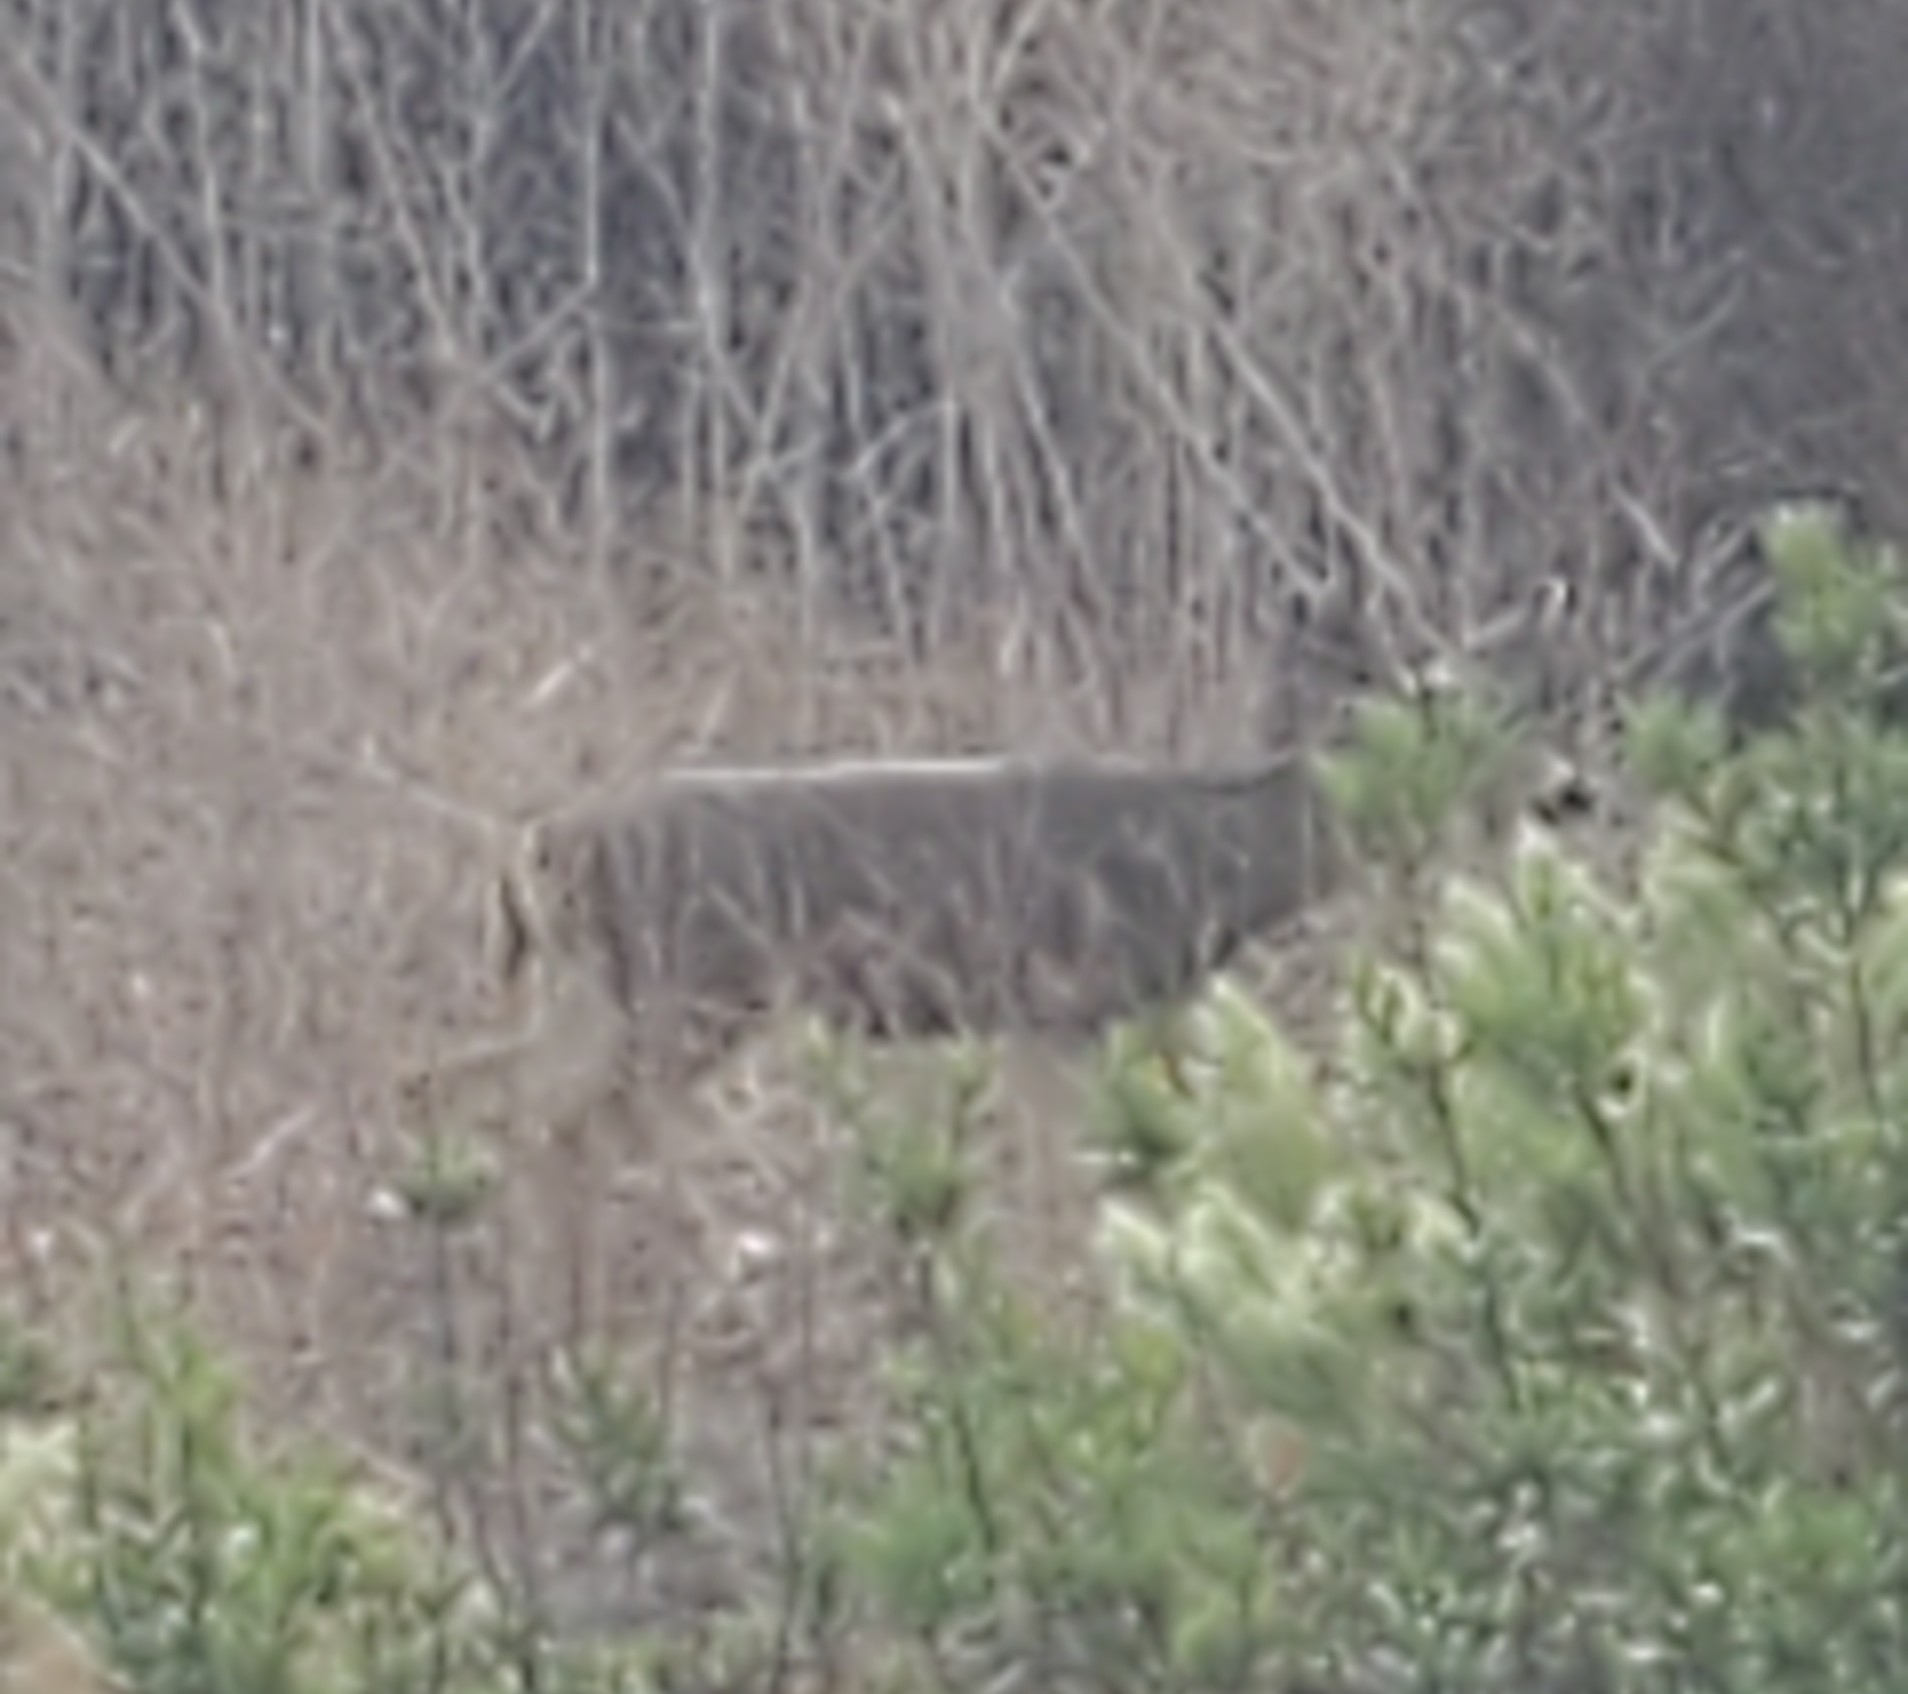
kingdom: Animalia
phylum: Chordata
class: Mammalia
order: Artiodactyla
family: Cervidae
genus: Odocoileus
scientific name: Odocoileus hemionus
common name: Mule deer
